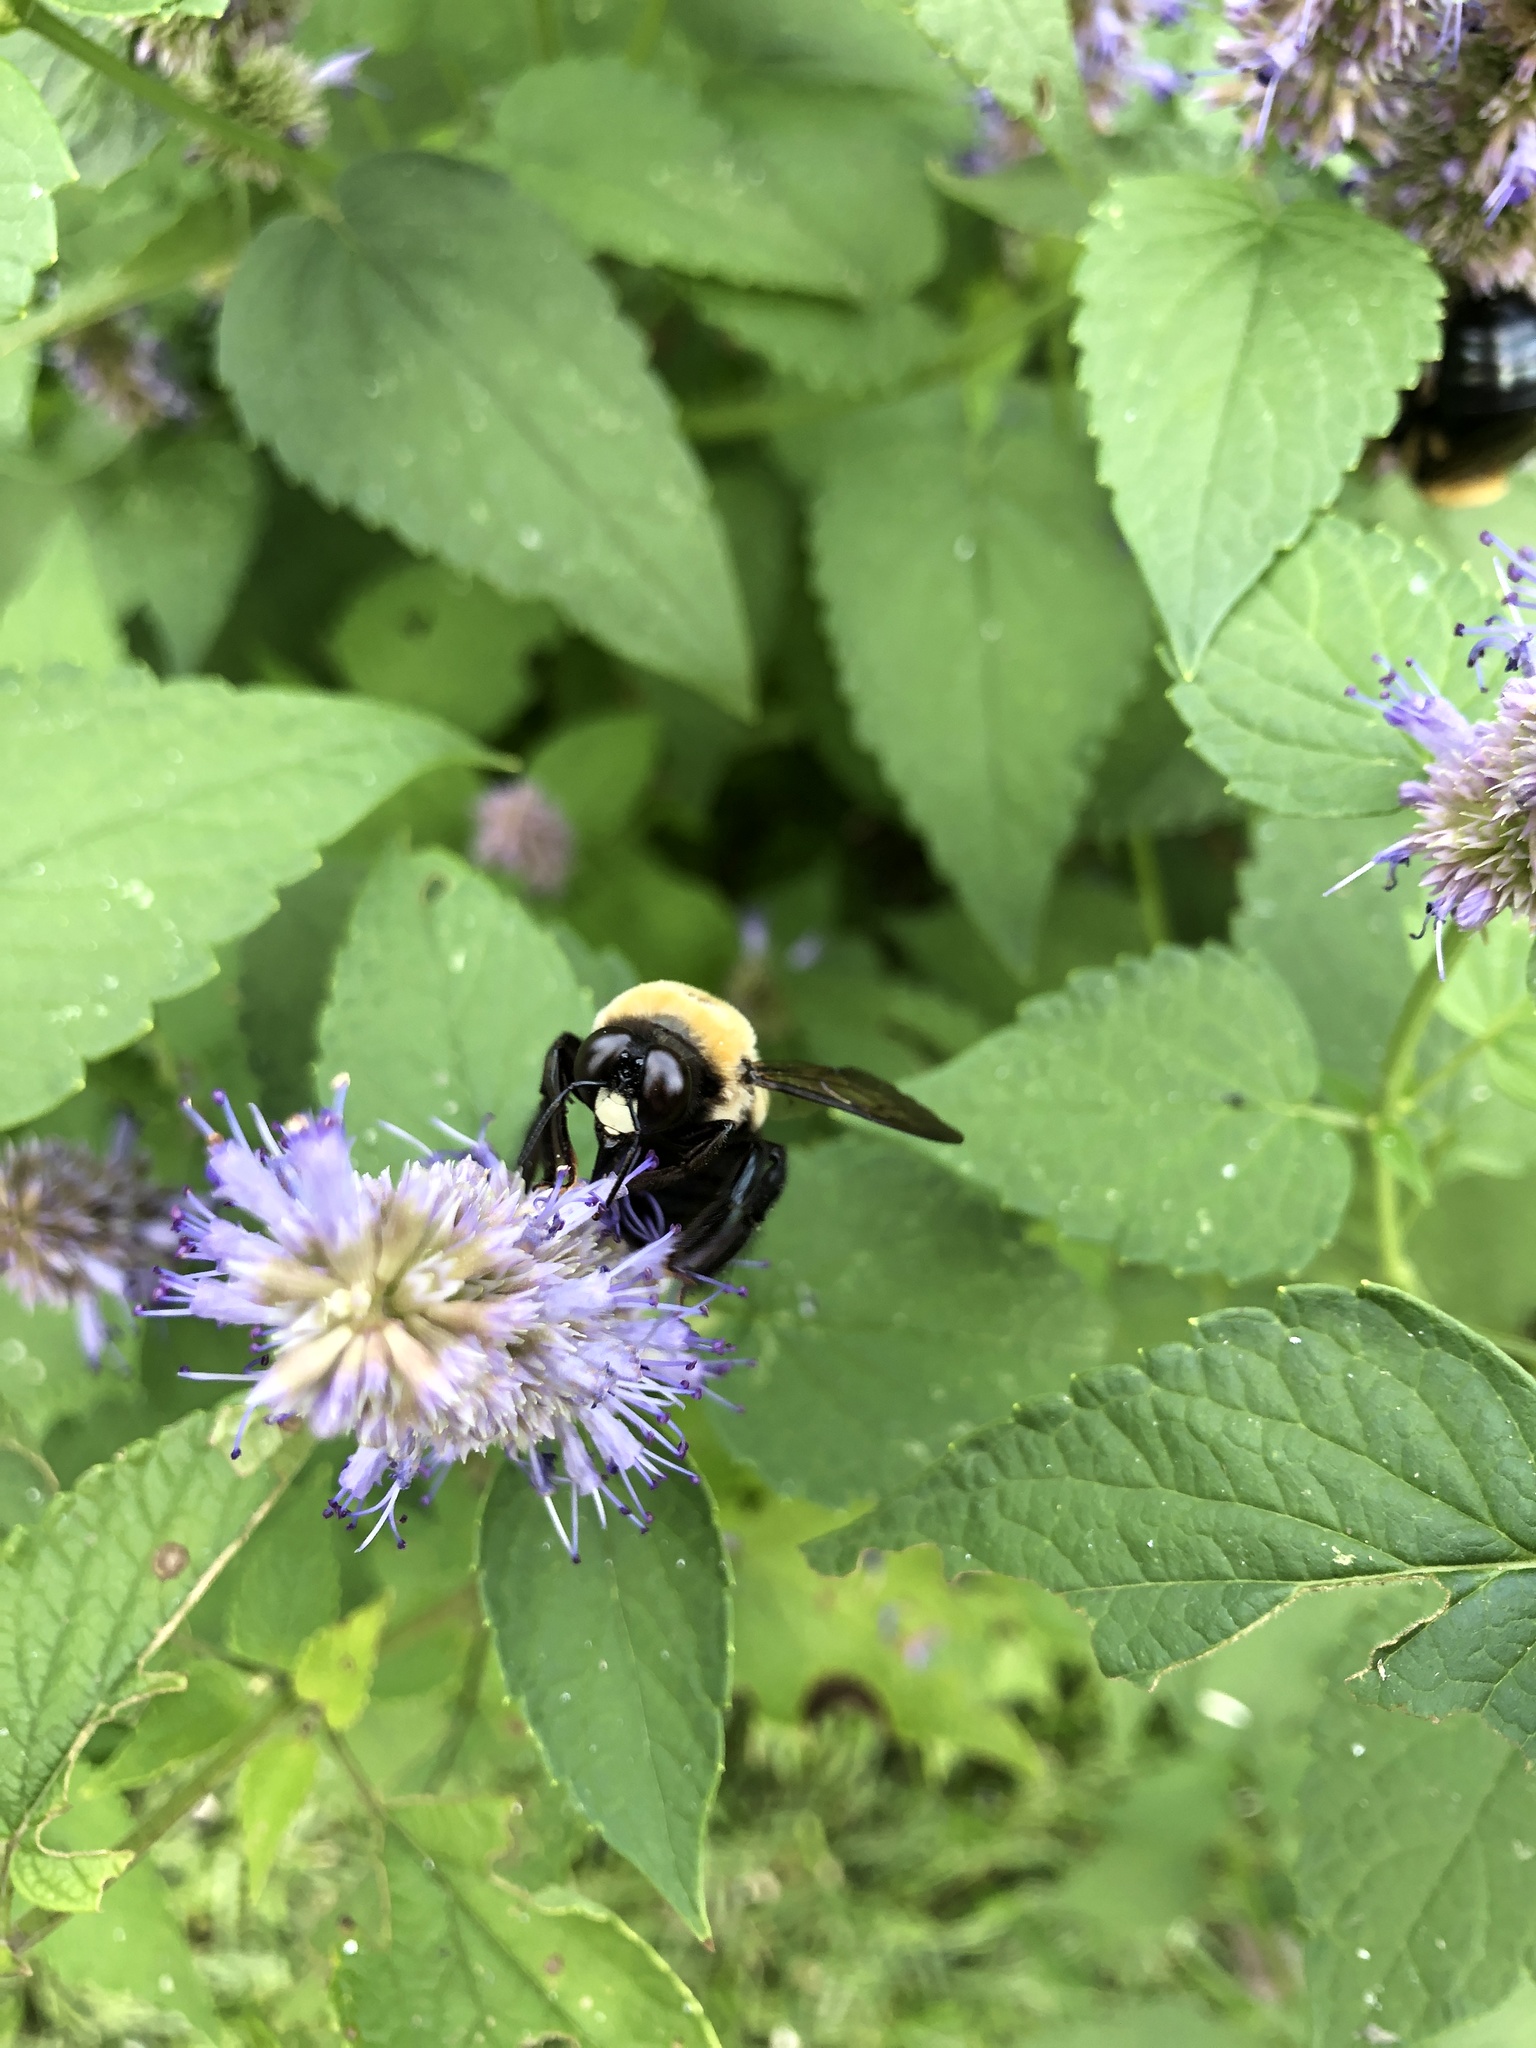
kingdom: Animalia
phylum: Arthropoda
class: Insecta
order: Hymenoptera
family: Apidae
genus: Xylocopa
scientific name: Xylocopa virginica
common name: Carpenter bee
